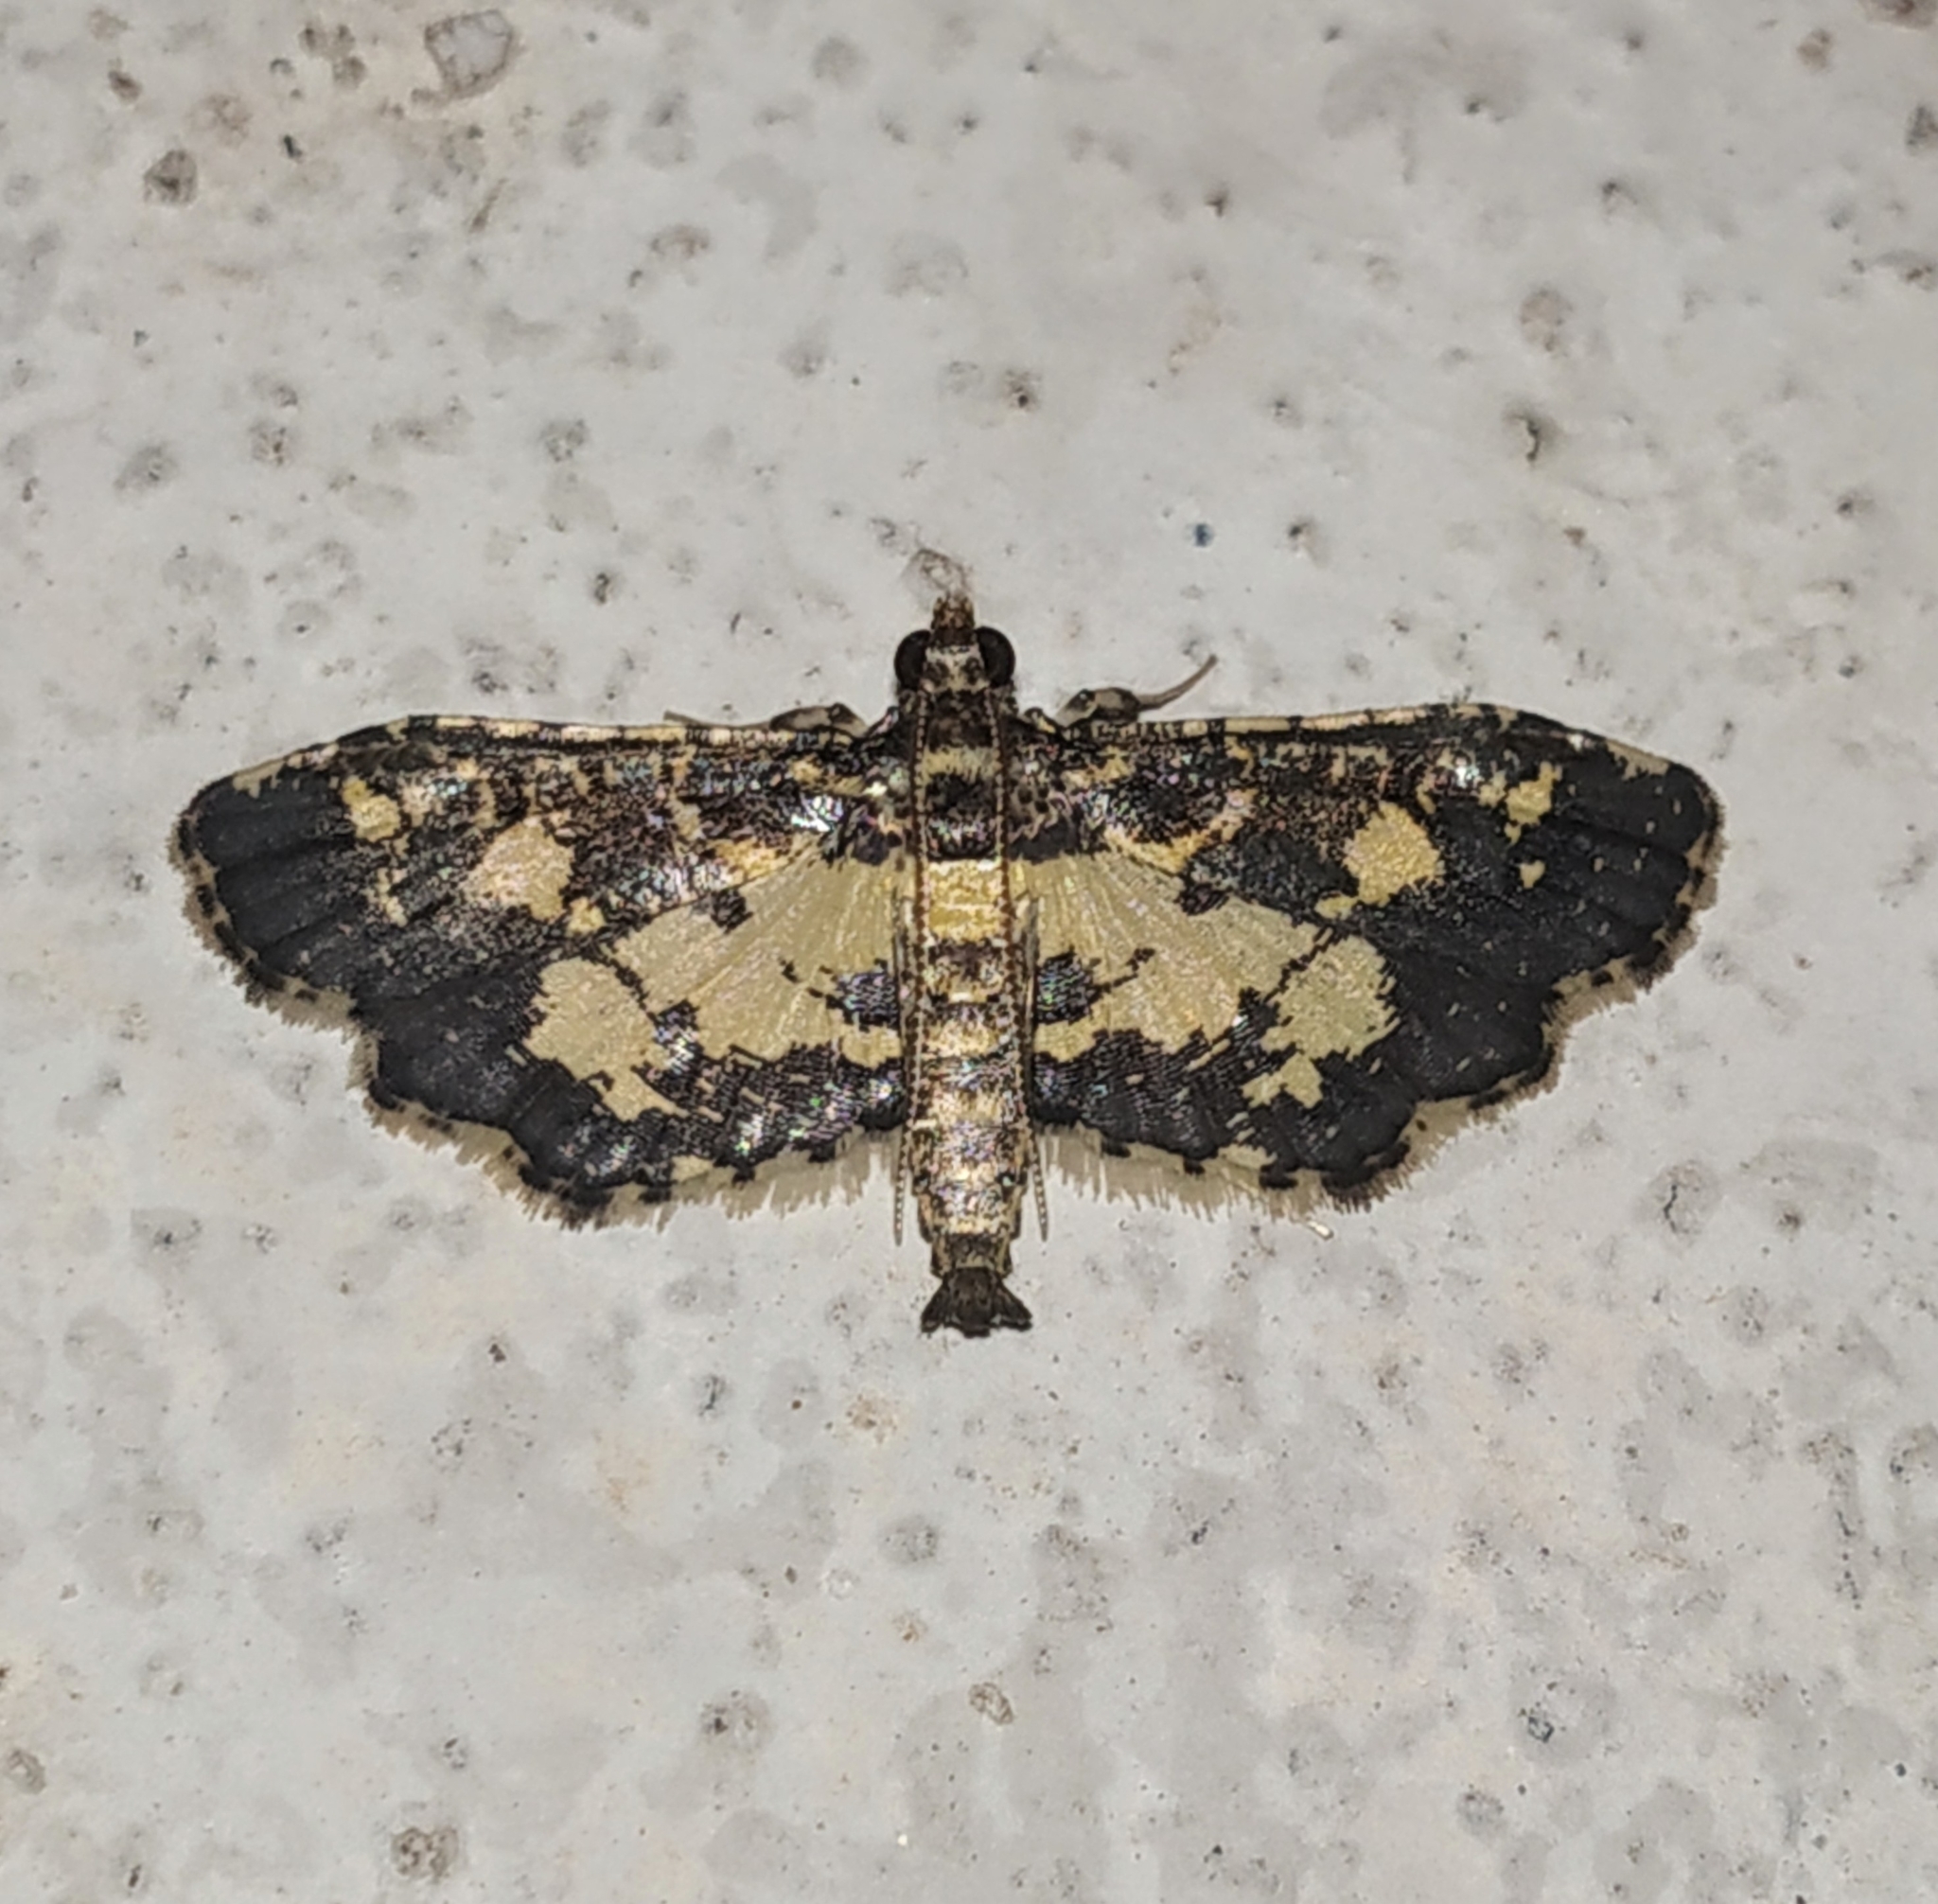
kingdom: Animalia
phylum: Arthropoda
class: Insecta
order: Lepidoptera
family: Crambidae
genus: Eurrhyparodes
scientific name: Eurrhyparodes bracteolalis
